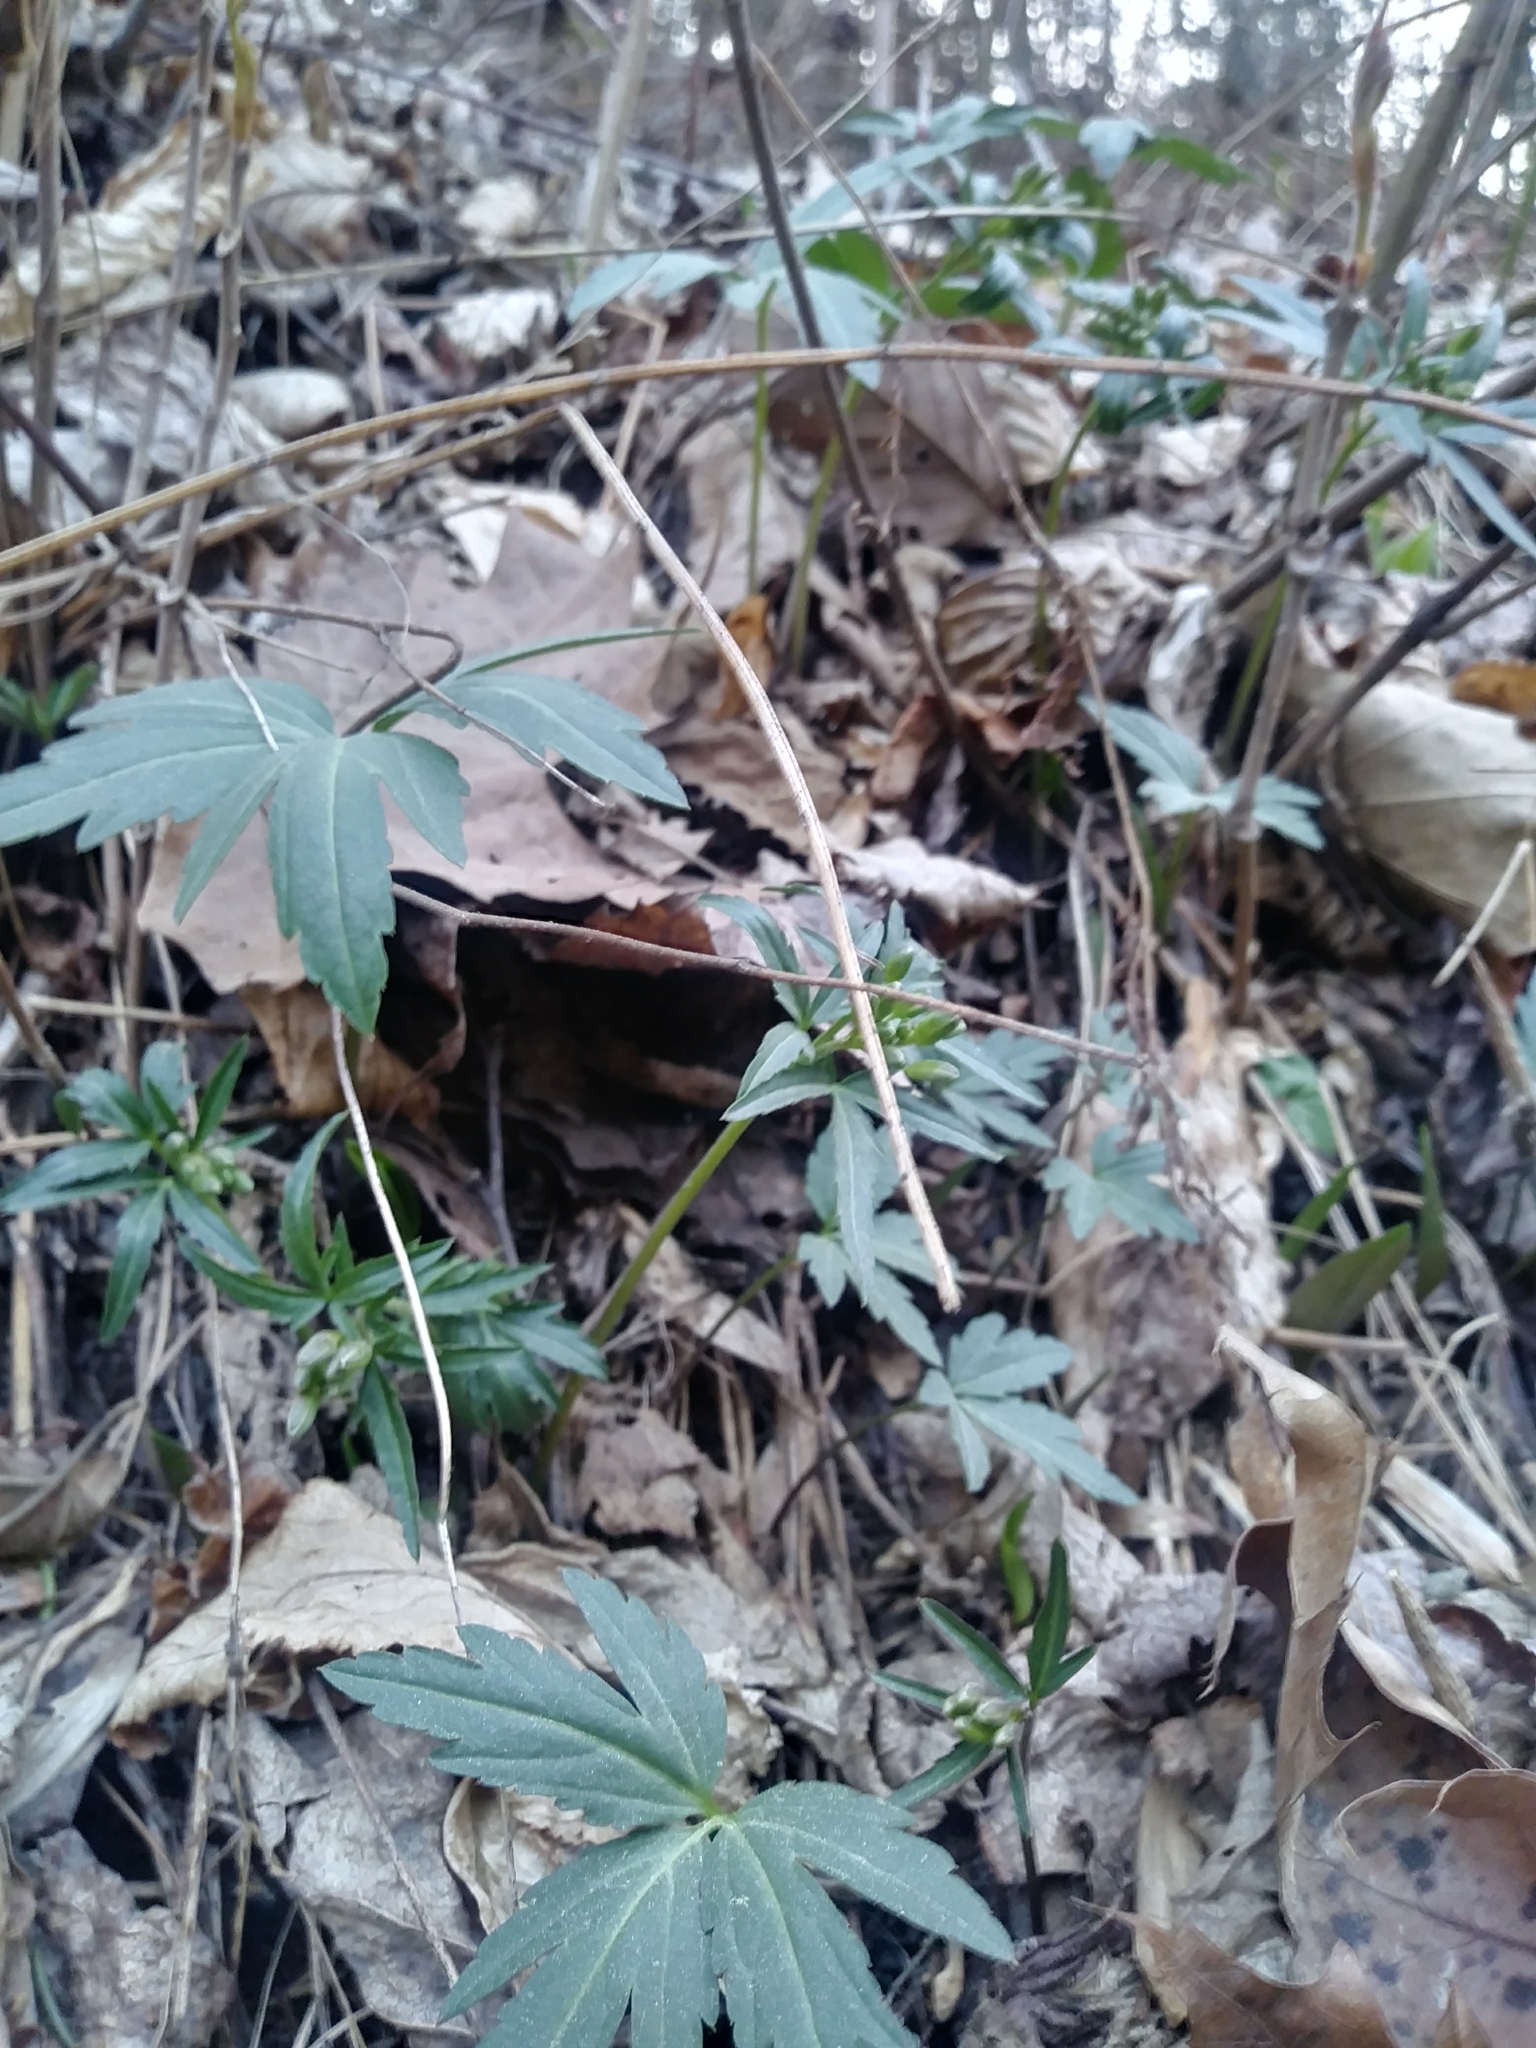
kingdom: Plantae
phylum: Tracheophyta
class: Magnoliopsida
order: Brassicales
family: Brassicaceae
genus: Cardamine
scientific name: Cardamine concatenata
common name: Cut-leaf toothcup
